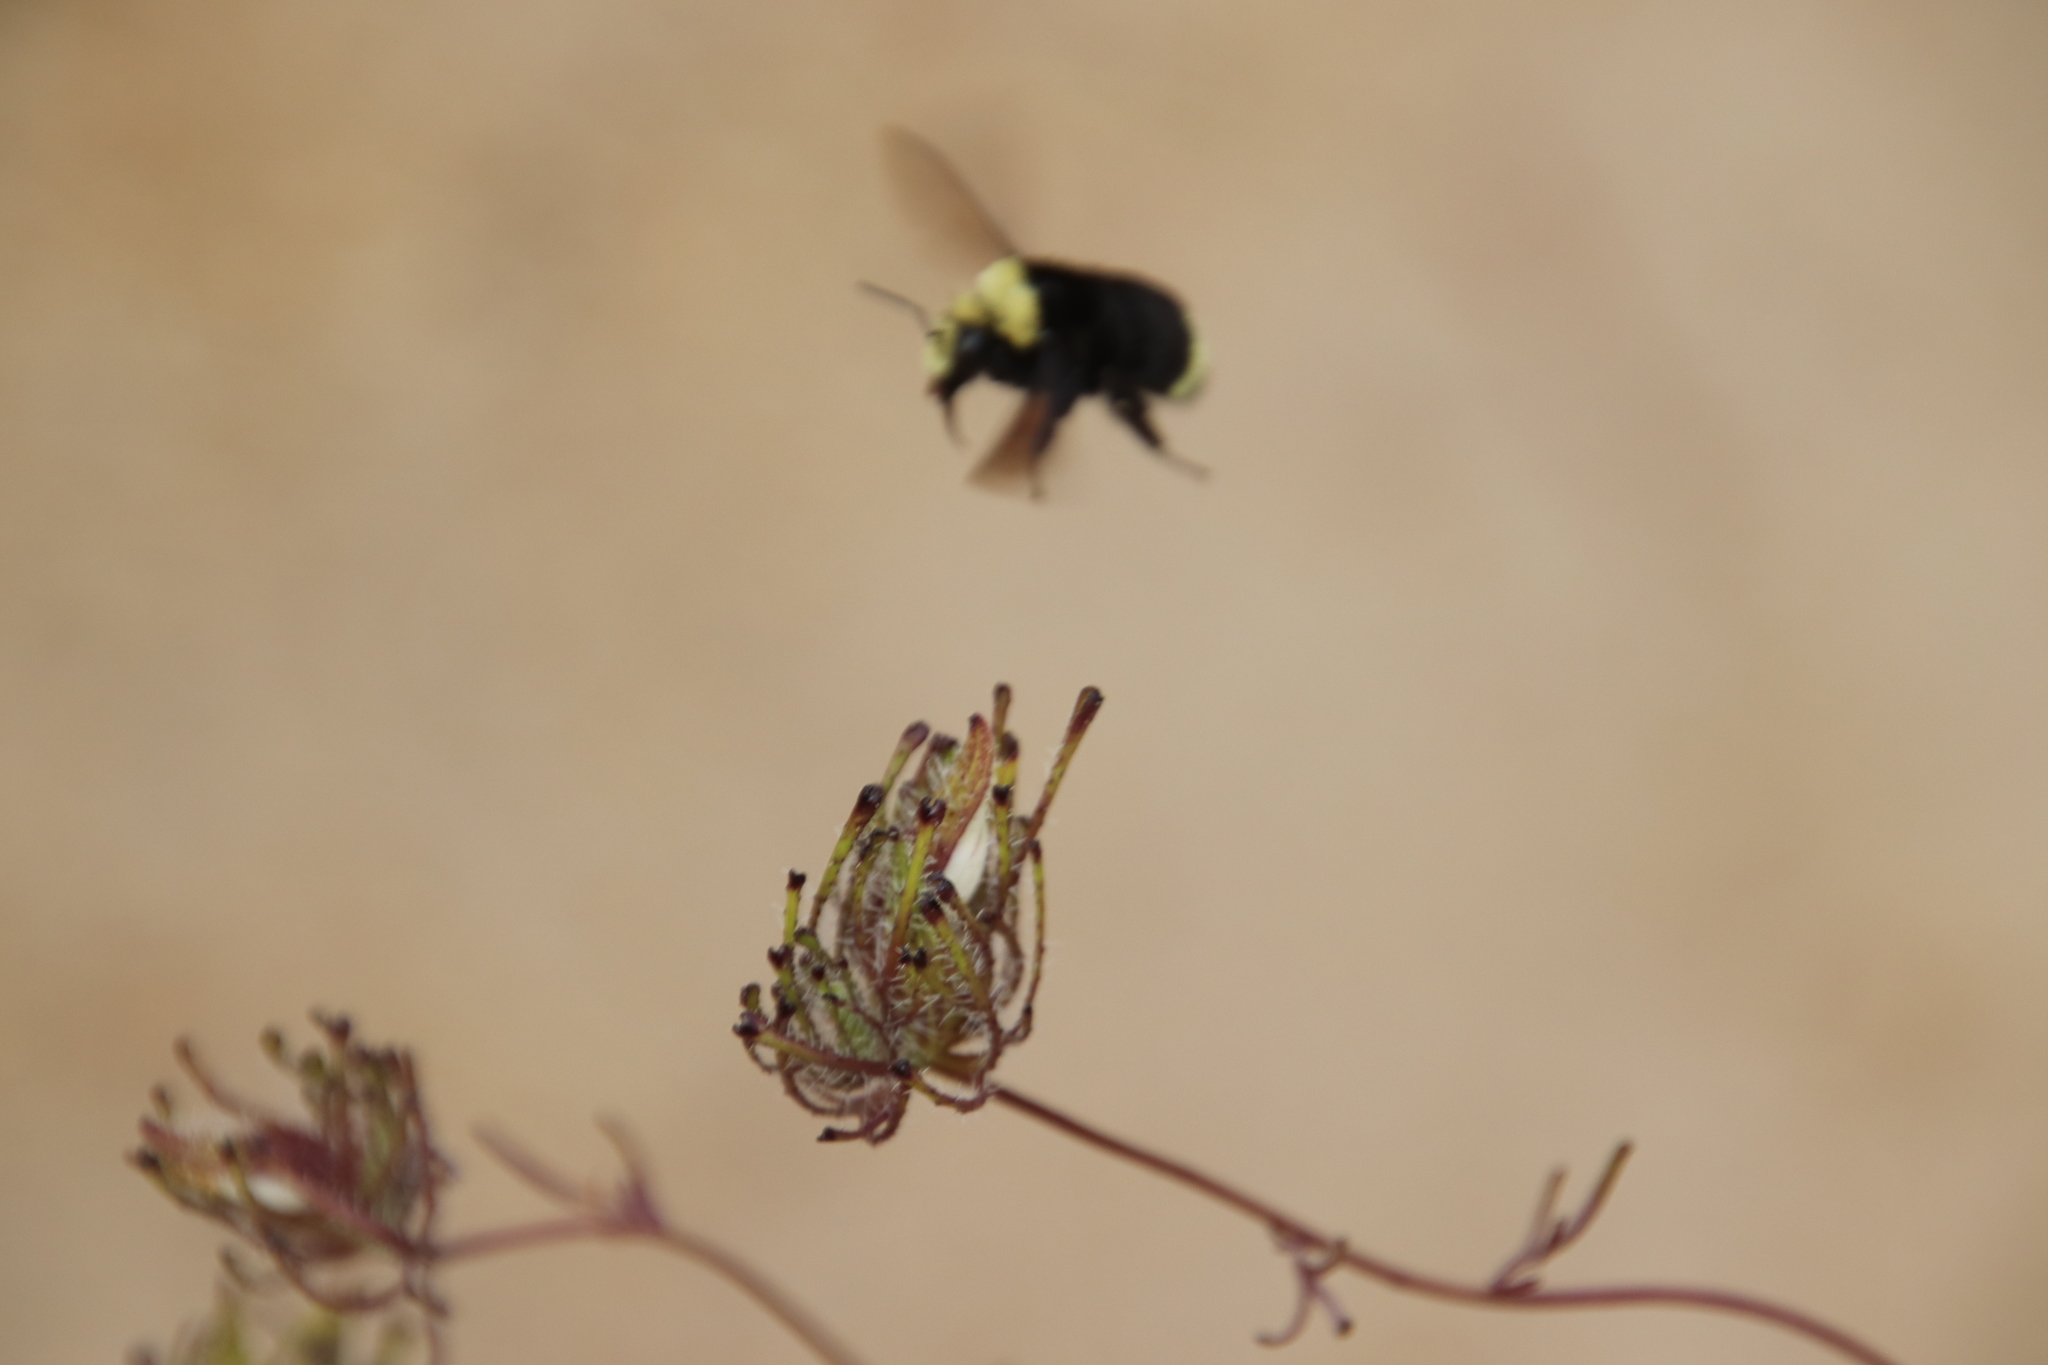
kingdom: Animalia
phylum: Arthropoda
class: Insecta
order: Hymenoptera
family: Apidae
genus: Bombus
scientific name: Bombus vosnesenskii
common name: Vosnesensky bumble bee
